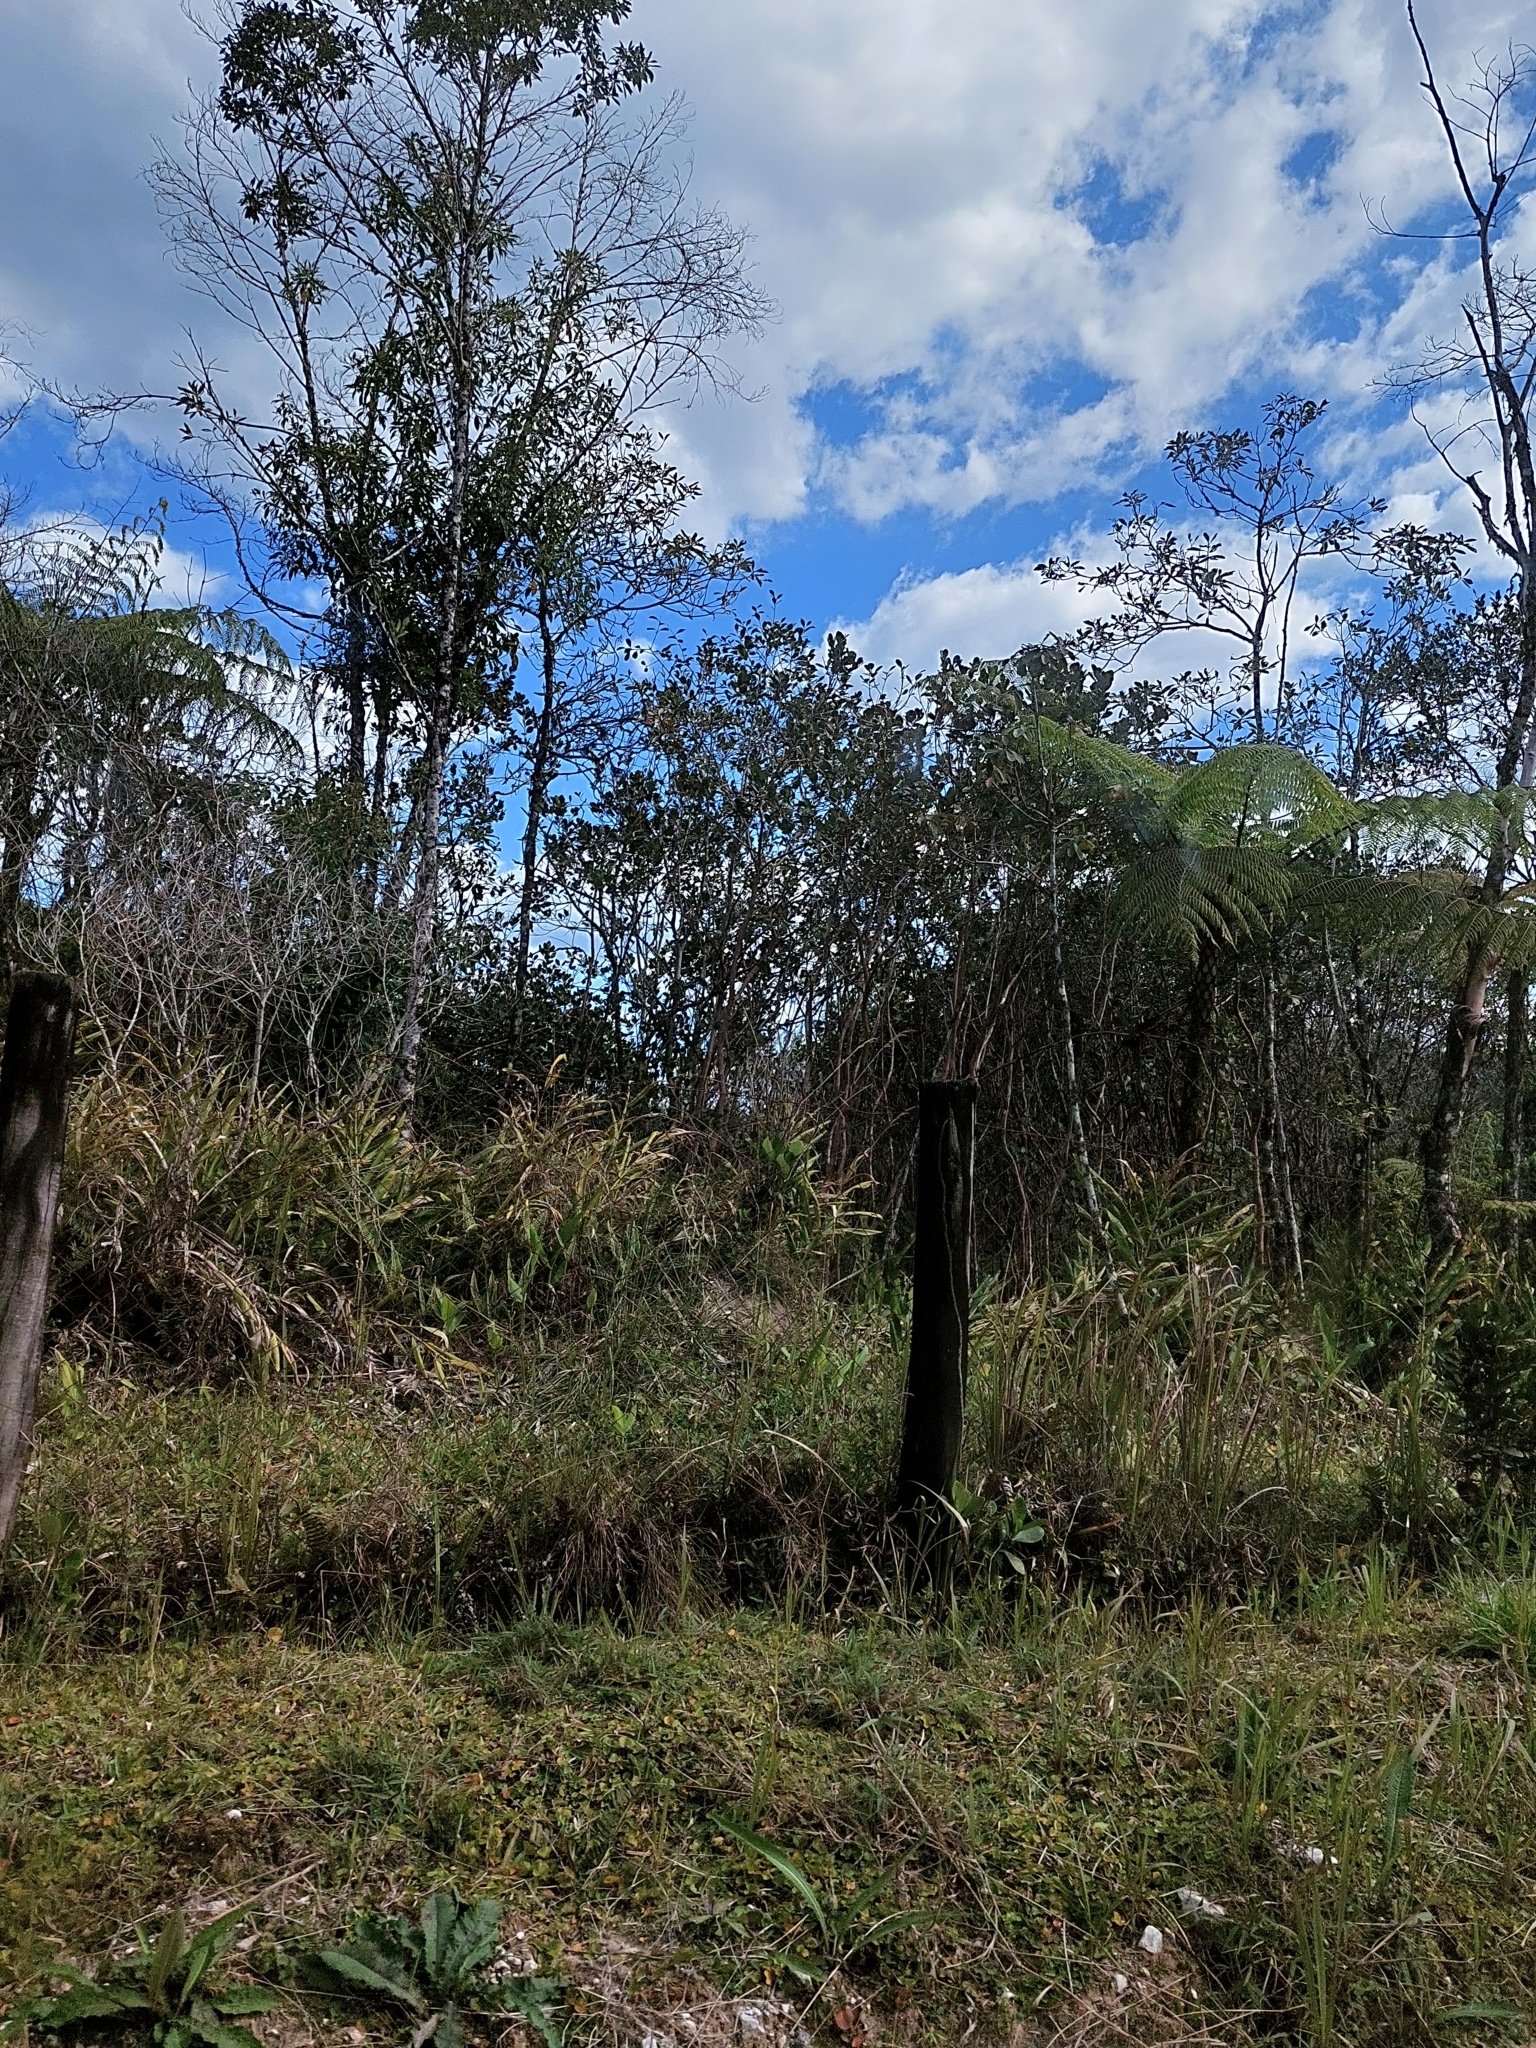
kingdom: Plantae
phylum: Tracheophyta
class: Liliopsida
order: Zingiberales
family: Zingiberaceae
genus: Hedychium
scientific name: Hedychium coronarium
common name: White garland-lily
